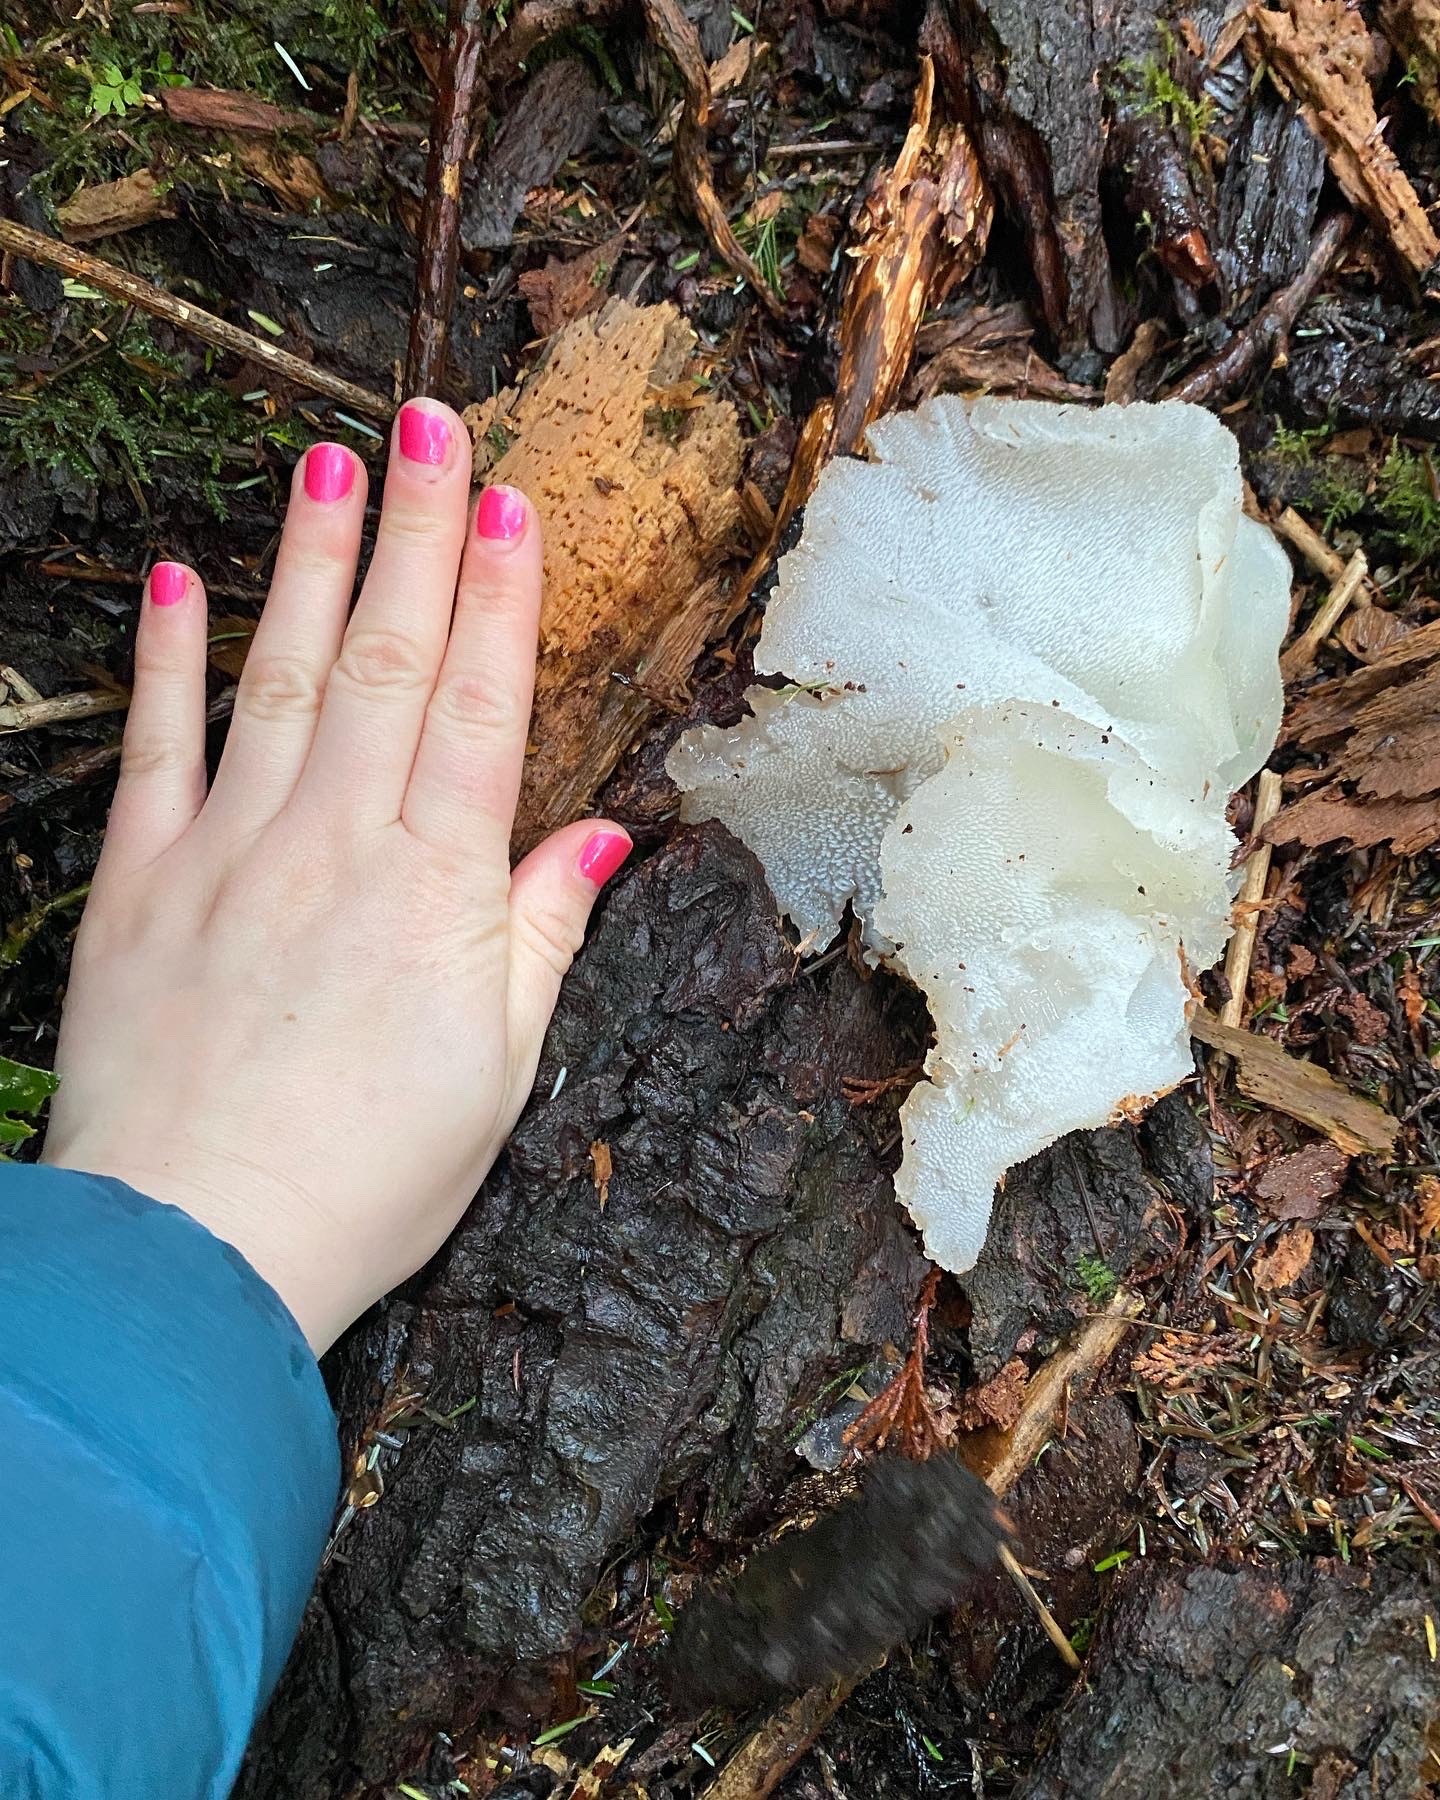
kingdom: Fungi
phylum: Basidiomycota
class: Agaricomycetes
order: Auriculariales
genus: Pseudohydnum
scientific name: Pseudohydnum gelatinosum
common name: Jelly tongue
